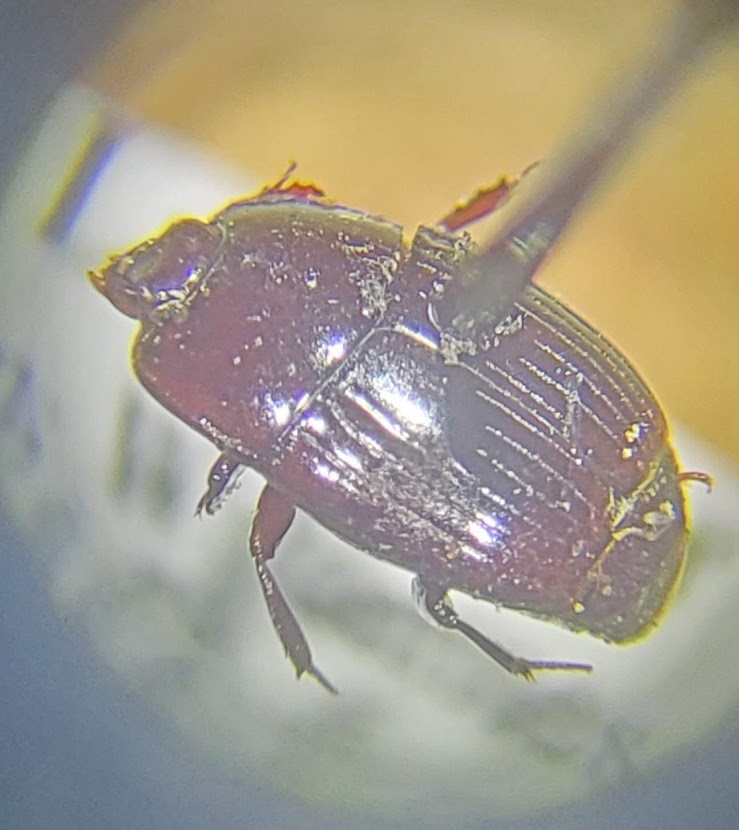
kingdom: Animalia
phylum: Arthropoda
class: Insecta
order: Coleoptera
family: Histeridae
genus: Eurylister
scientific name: Eurylister carolinus
